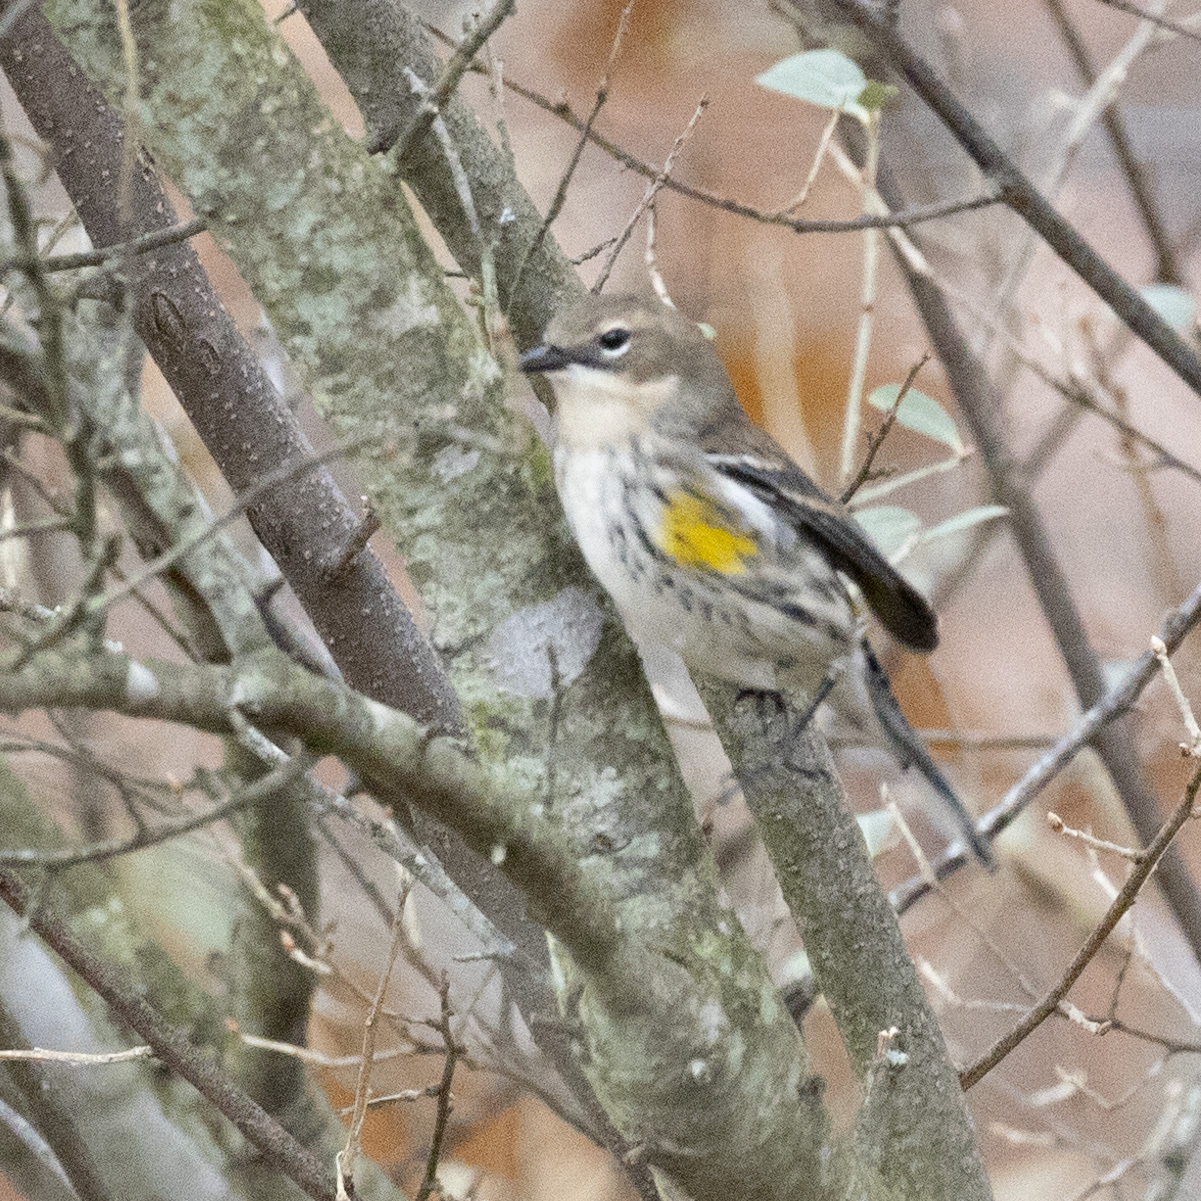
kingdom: Animalia
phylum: Chordata
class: Aves
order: Passeriformes
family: Parulidae
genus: Setophaga
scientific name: Setophaga coronata
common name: Myrtle warbler
